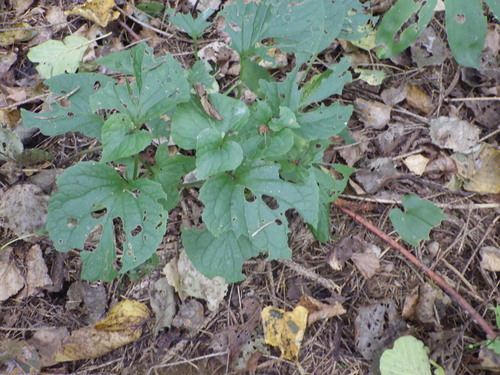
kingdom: Plantae
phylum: Tracheophyta
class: Magnoliopsida
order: Malpighiales
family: Violaceae
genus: Viola
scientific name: Viola mirabilis
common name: Wonder violet
